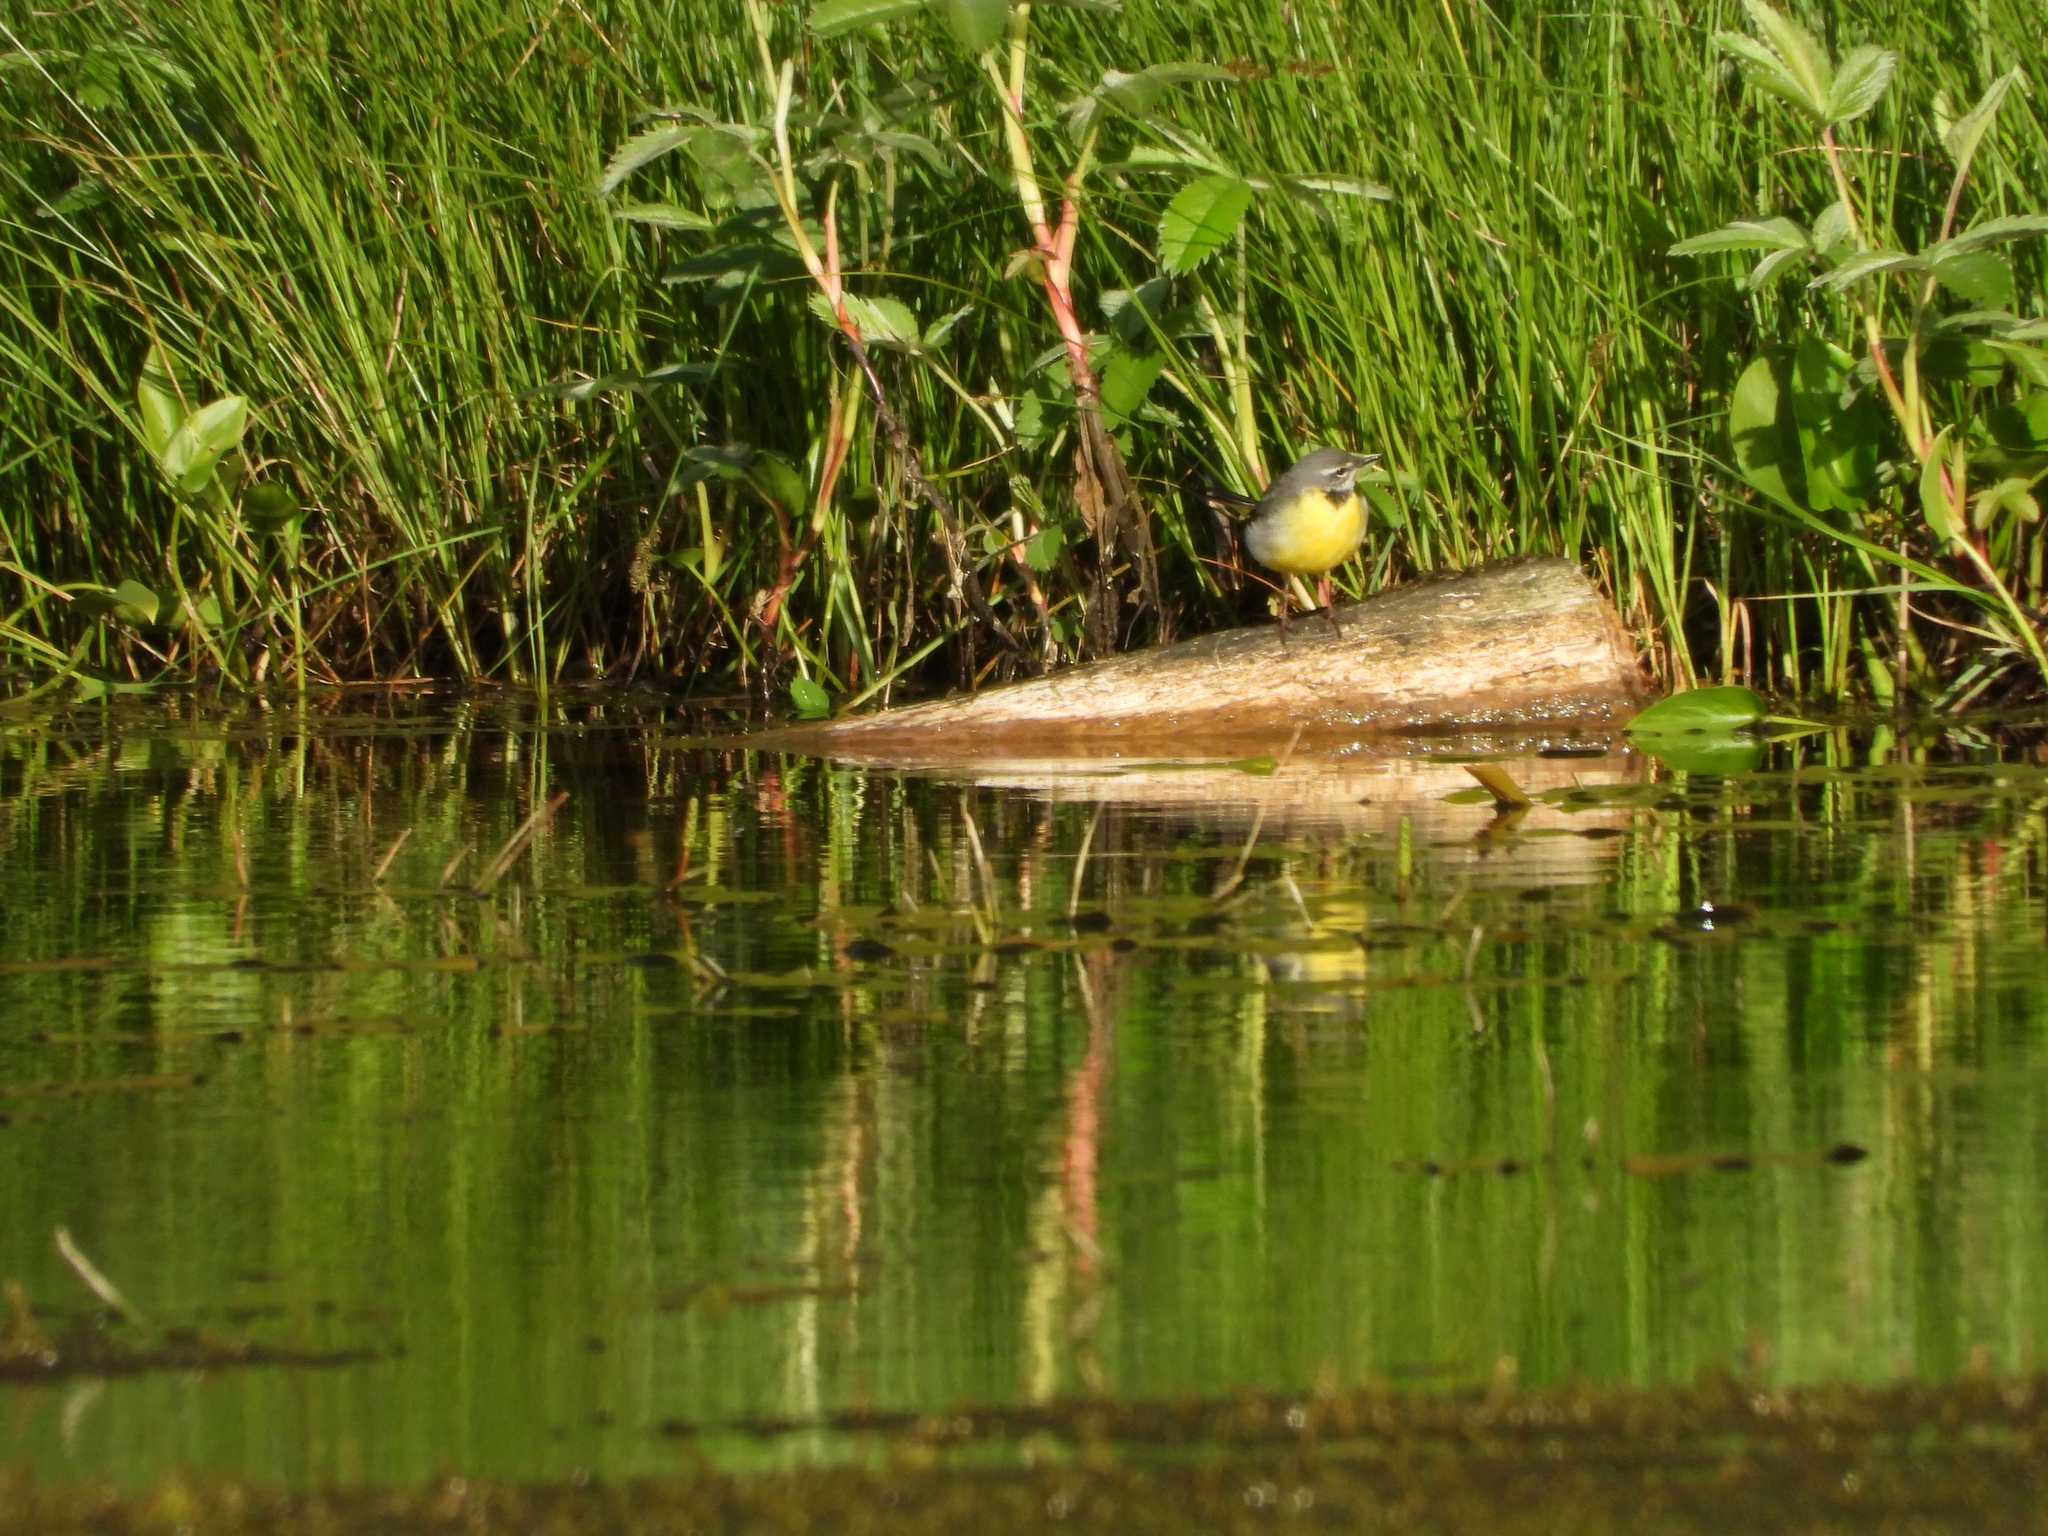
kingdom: Animalia
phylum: Chordata
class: Aves
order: Passeriformes
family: Motacillidae
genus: Motacilla
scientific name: Motacilla cinerea
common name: Grey wagtail
